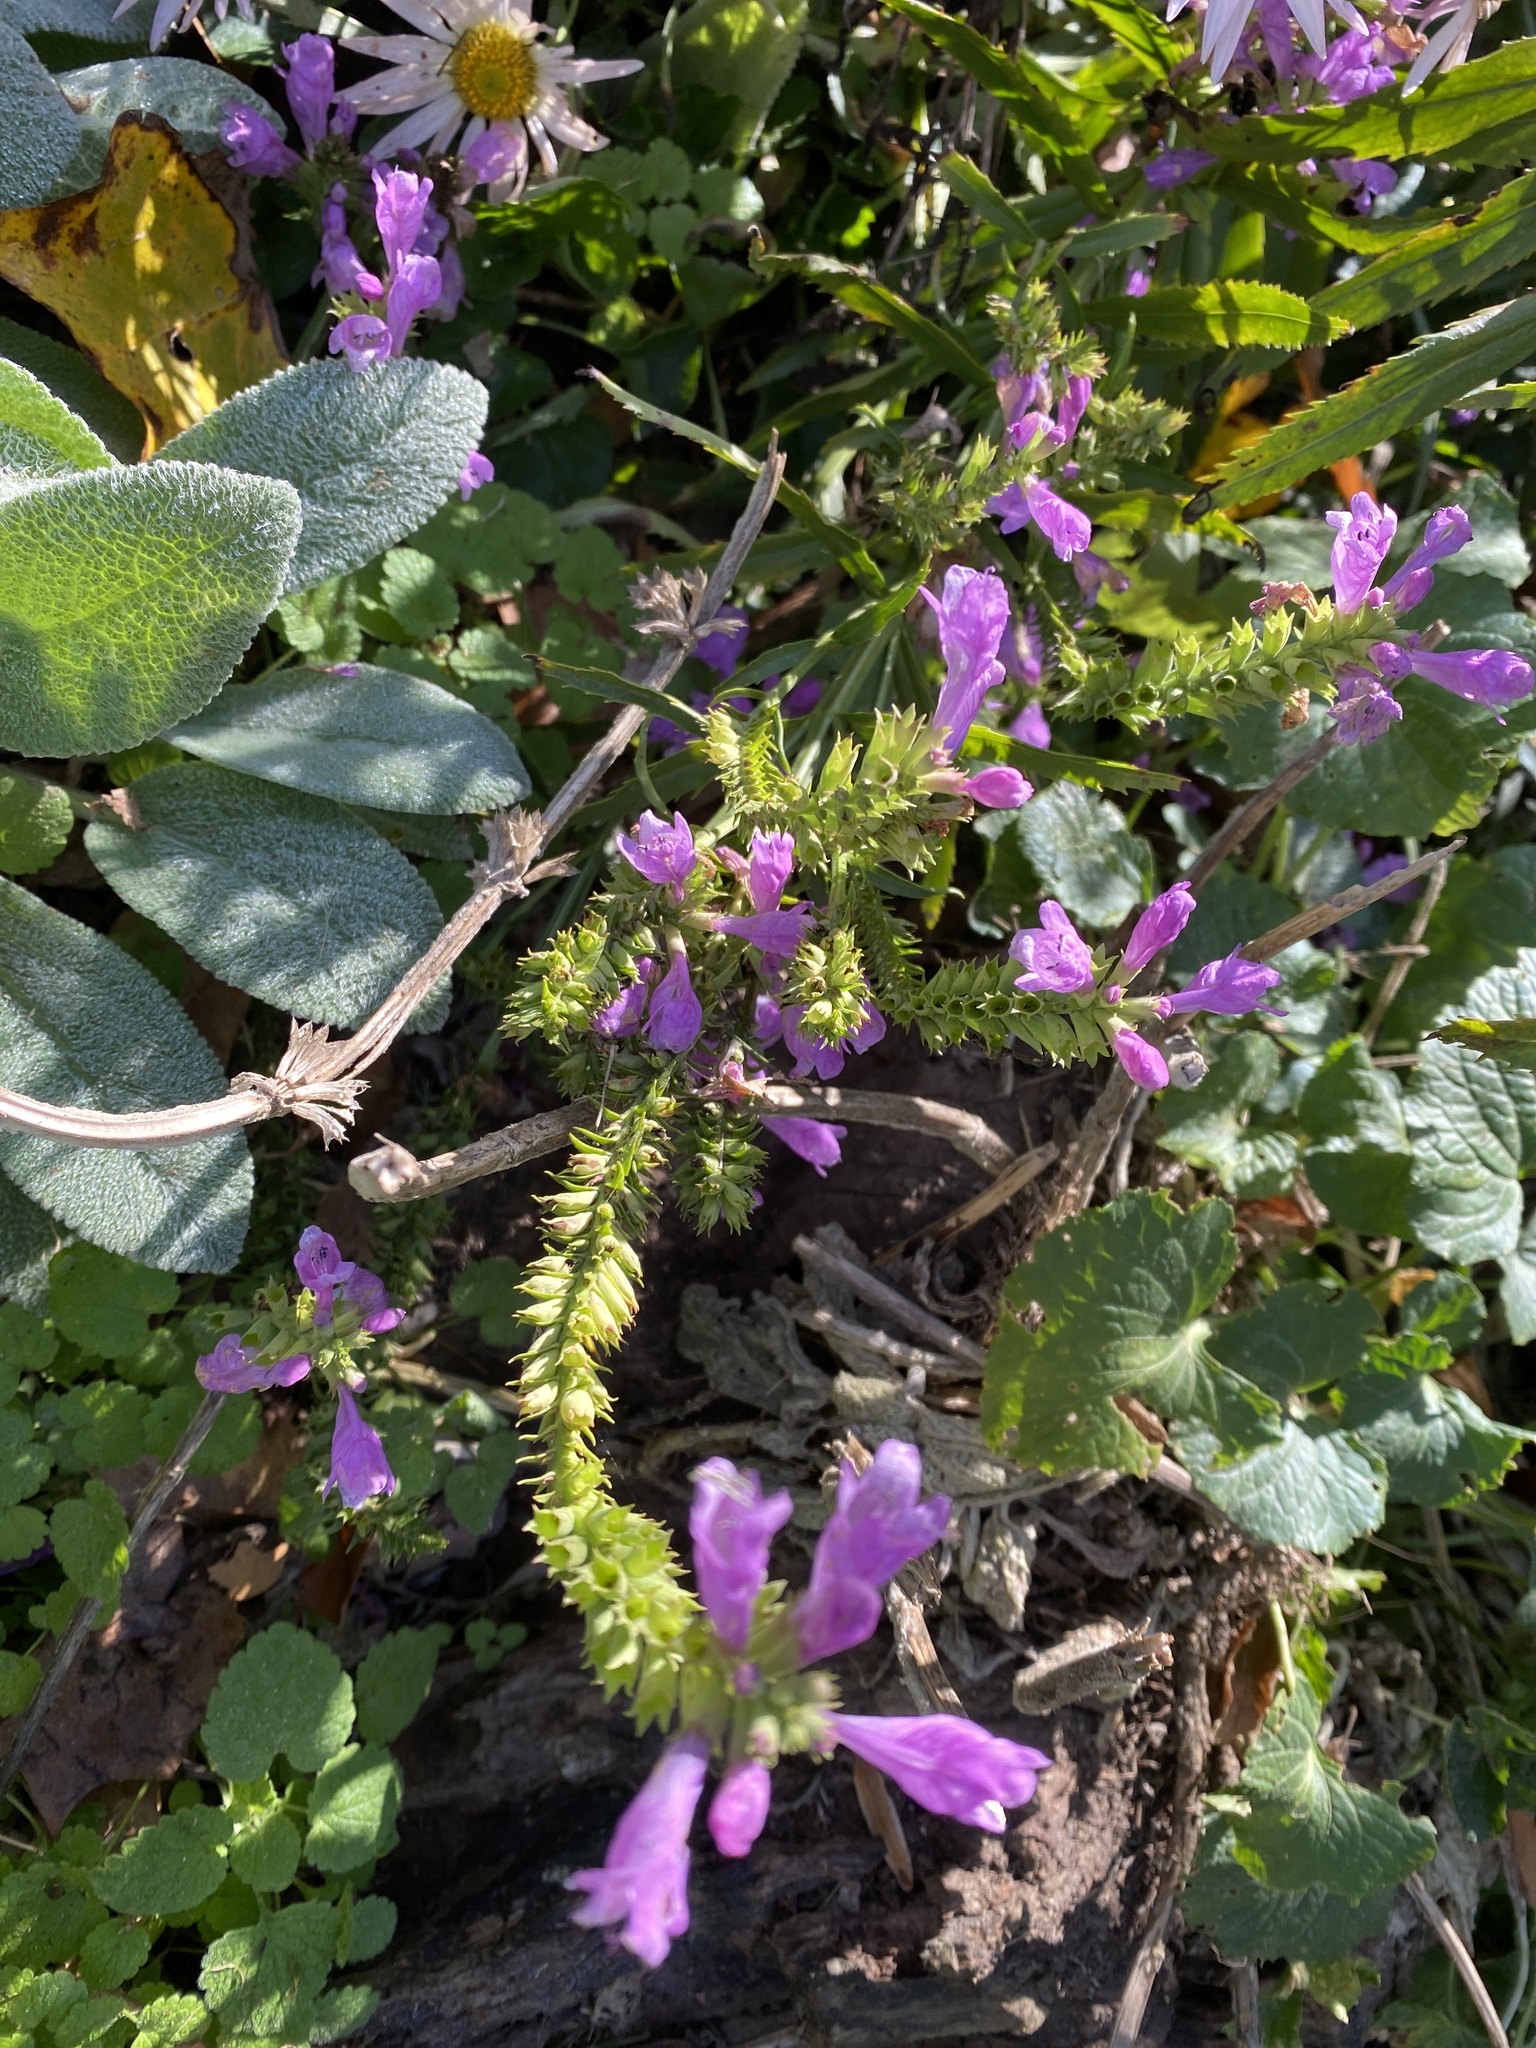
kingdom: Plantae
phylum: Tracheophyta
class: Magnoliopsida
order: Lamiales
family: Lamiaceae
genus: Physostegia
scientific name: Physostegia virginiana
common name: Obedient-plant
